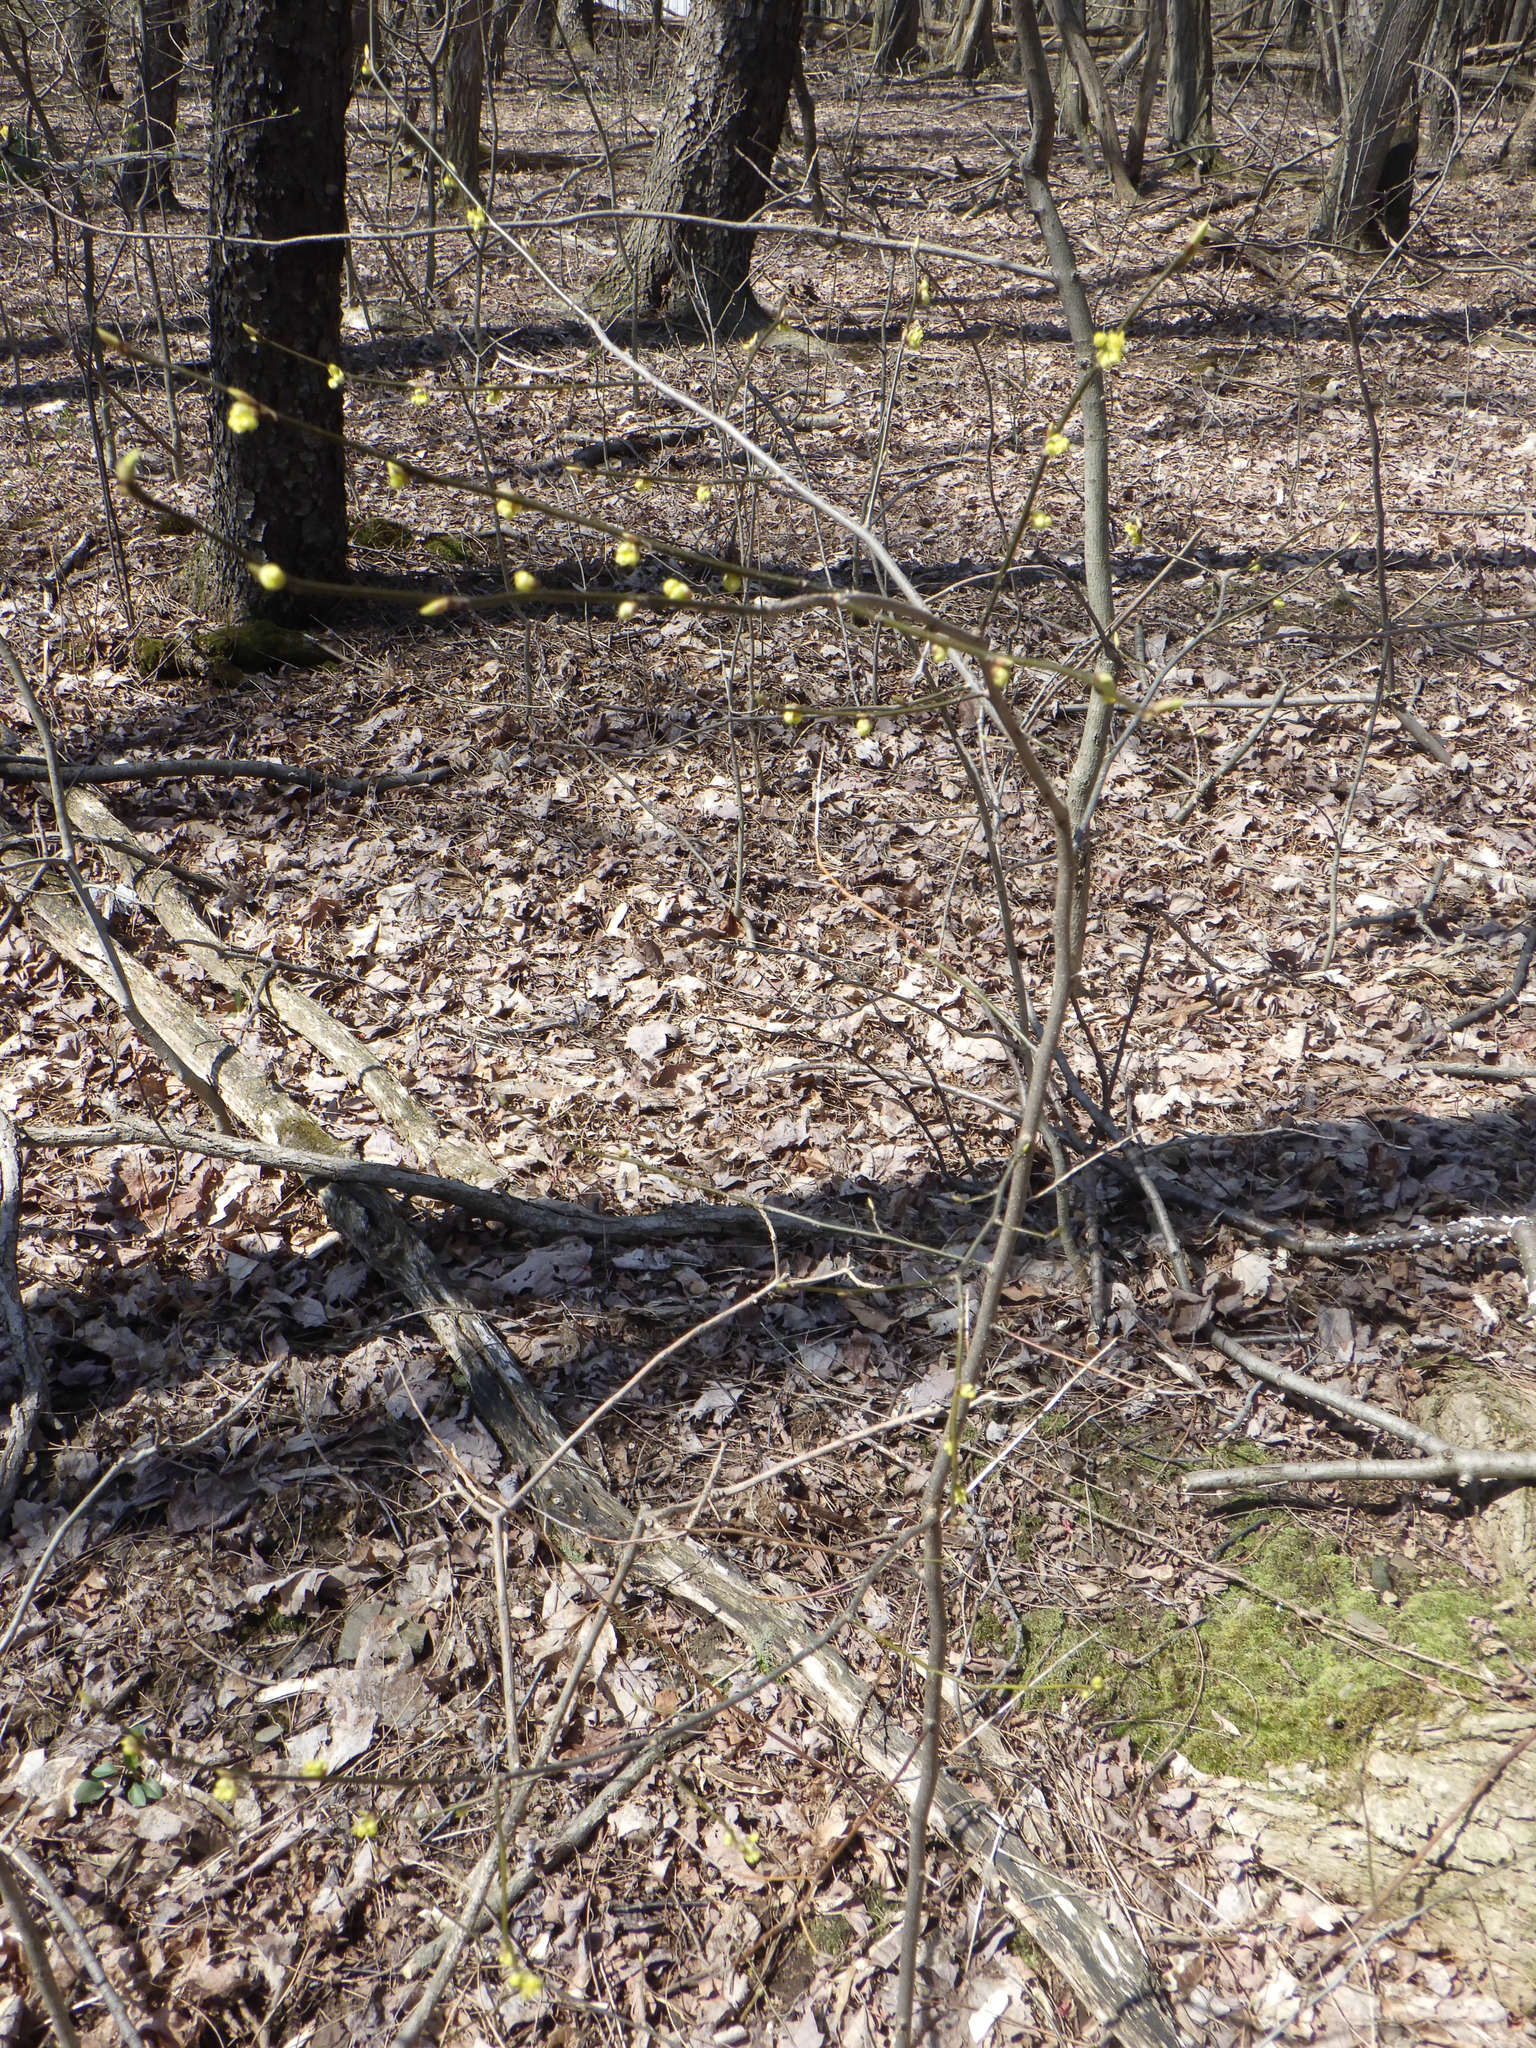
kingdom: Plantae
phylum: Tracheophyta
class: Magnoliopsida
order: Laurales
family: Lauraceae
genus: Lindera
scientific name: Lindera benzoin
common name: Spicebush
